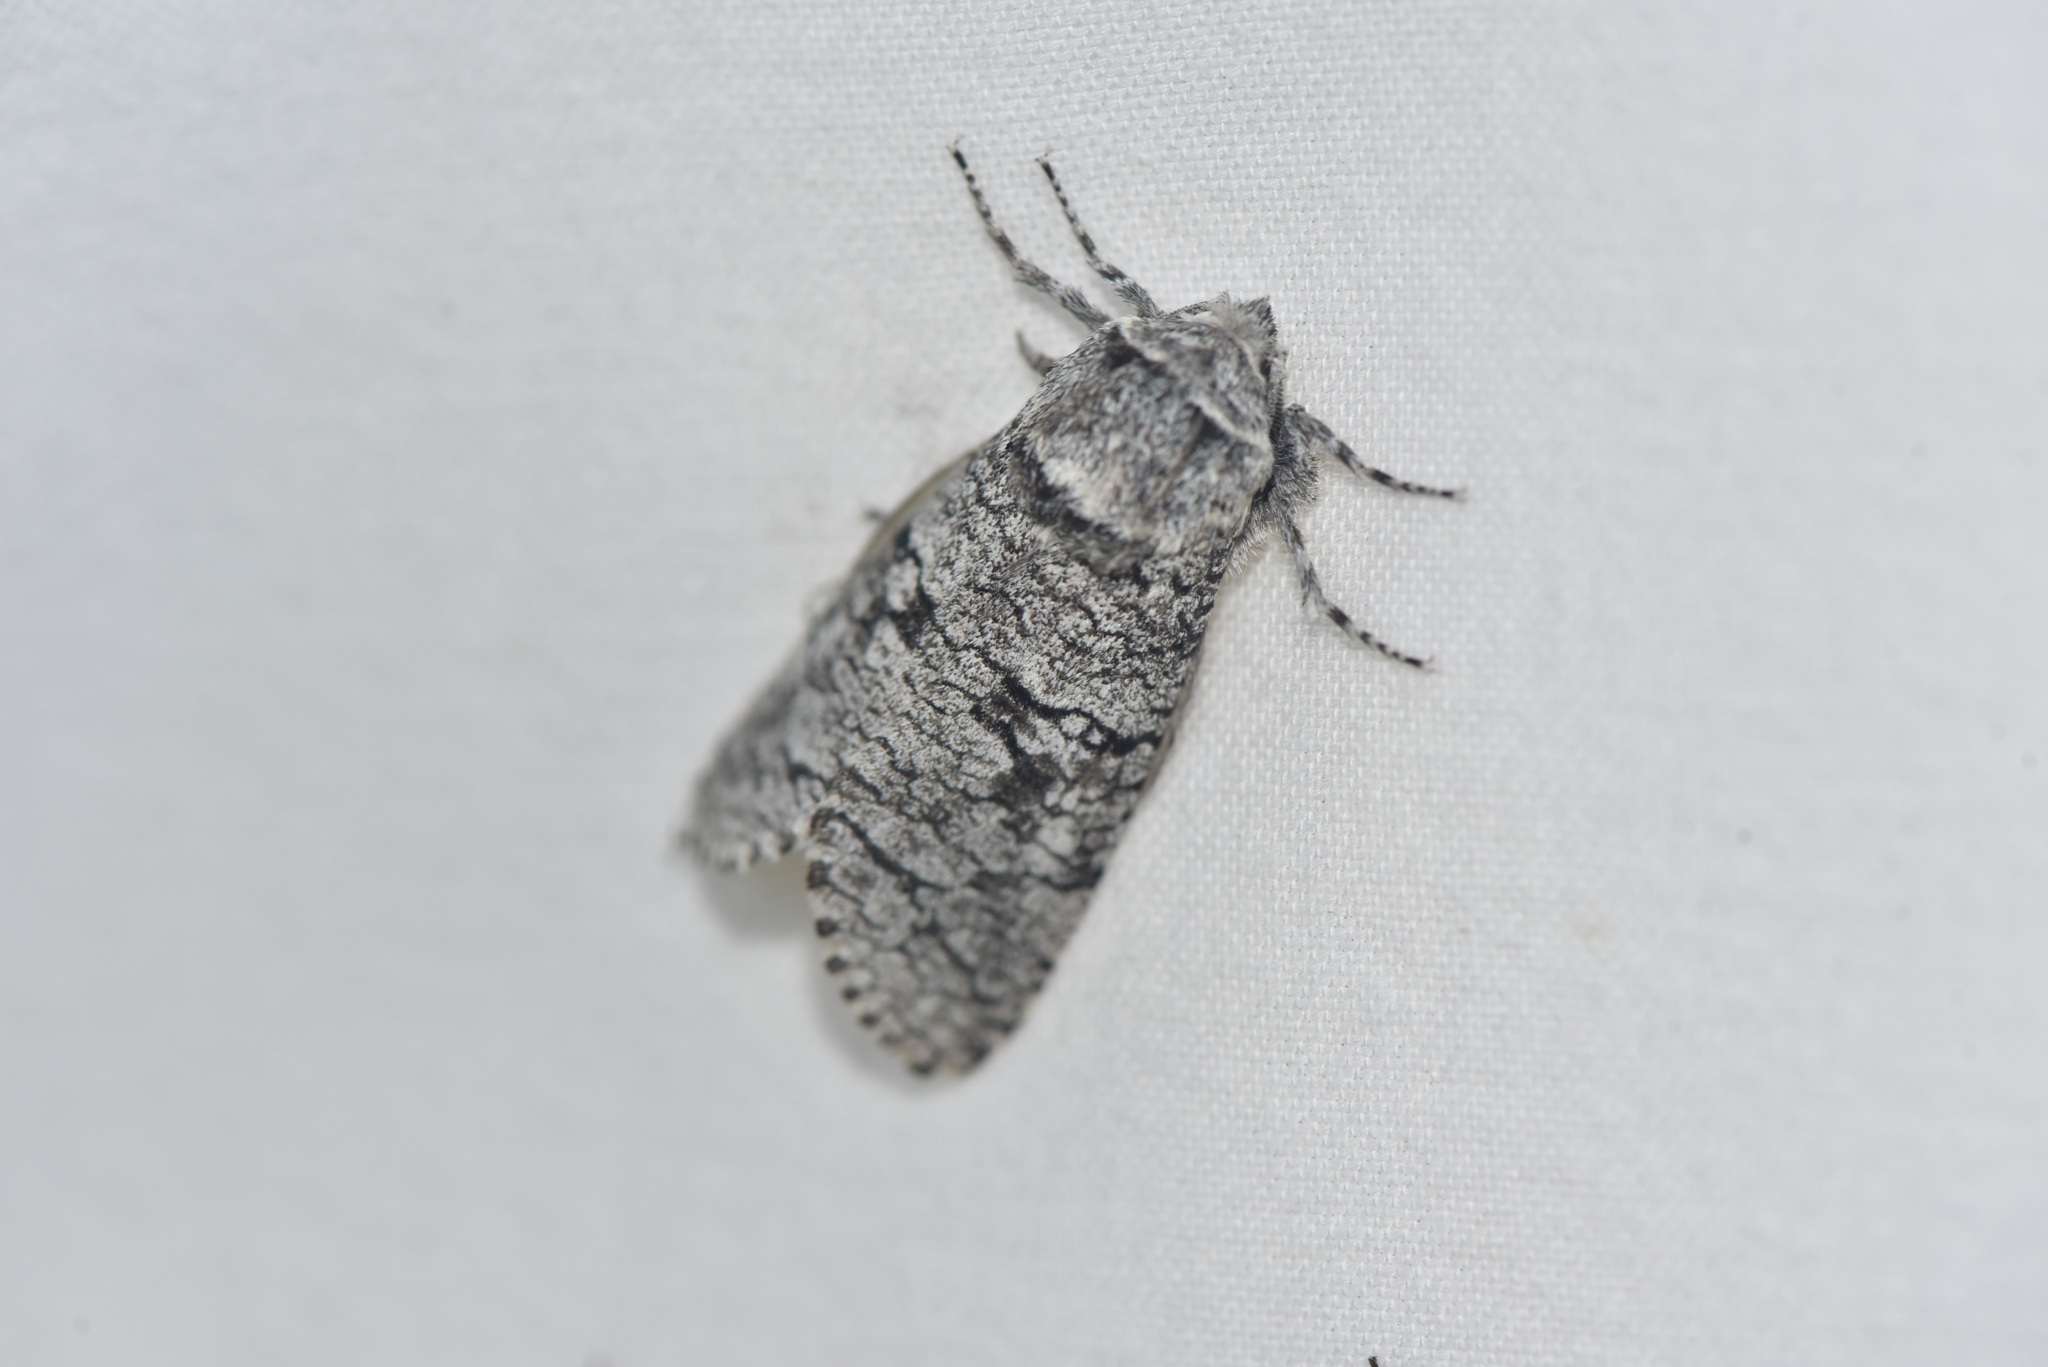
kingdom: Animalia
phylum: Arthropoda
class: Insecta
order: Lepidoptera
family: Cossidae
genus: Acossus
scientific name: Acossus populi
